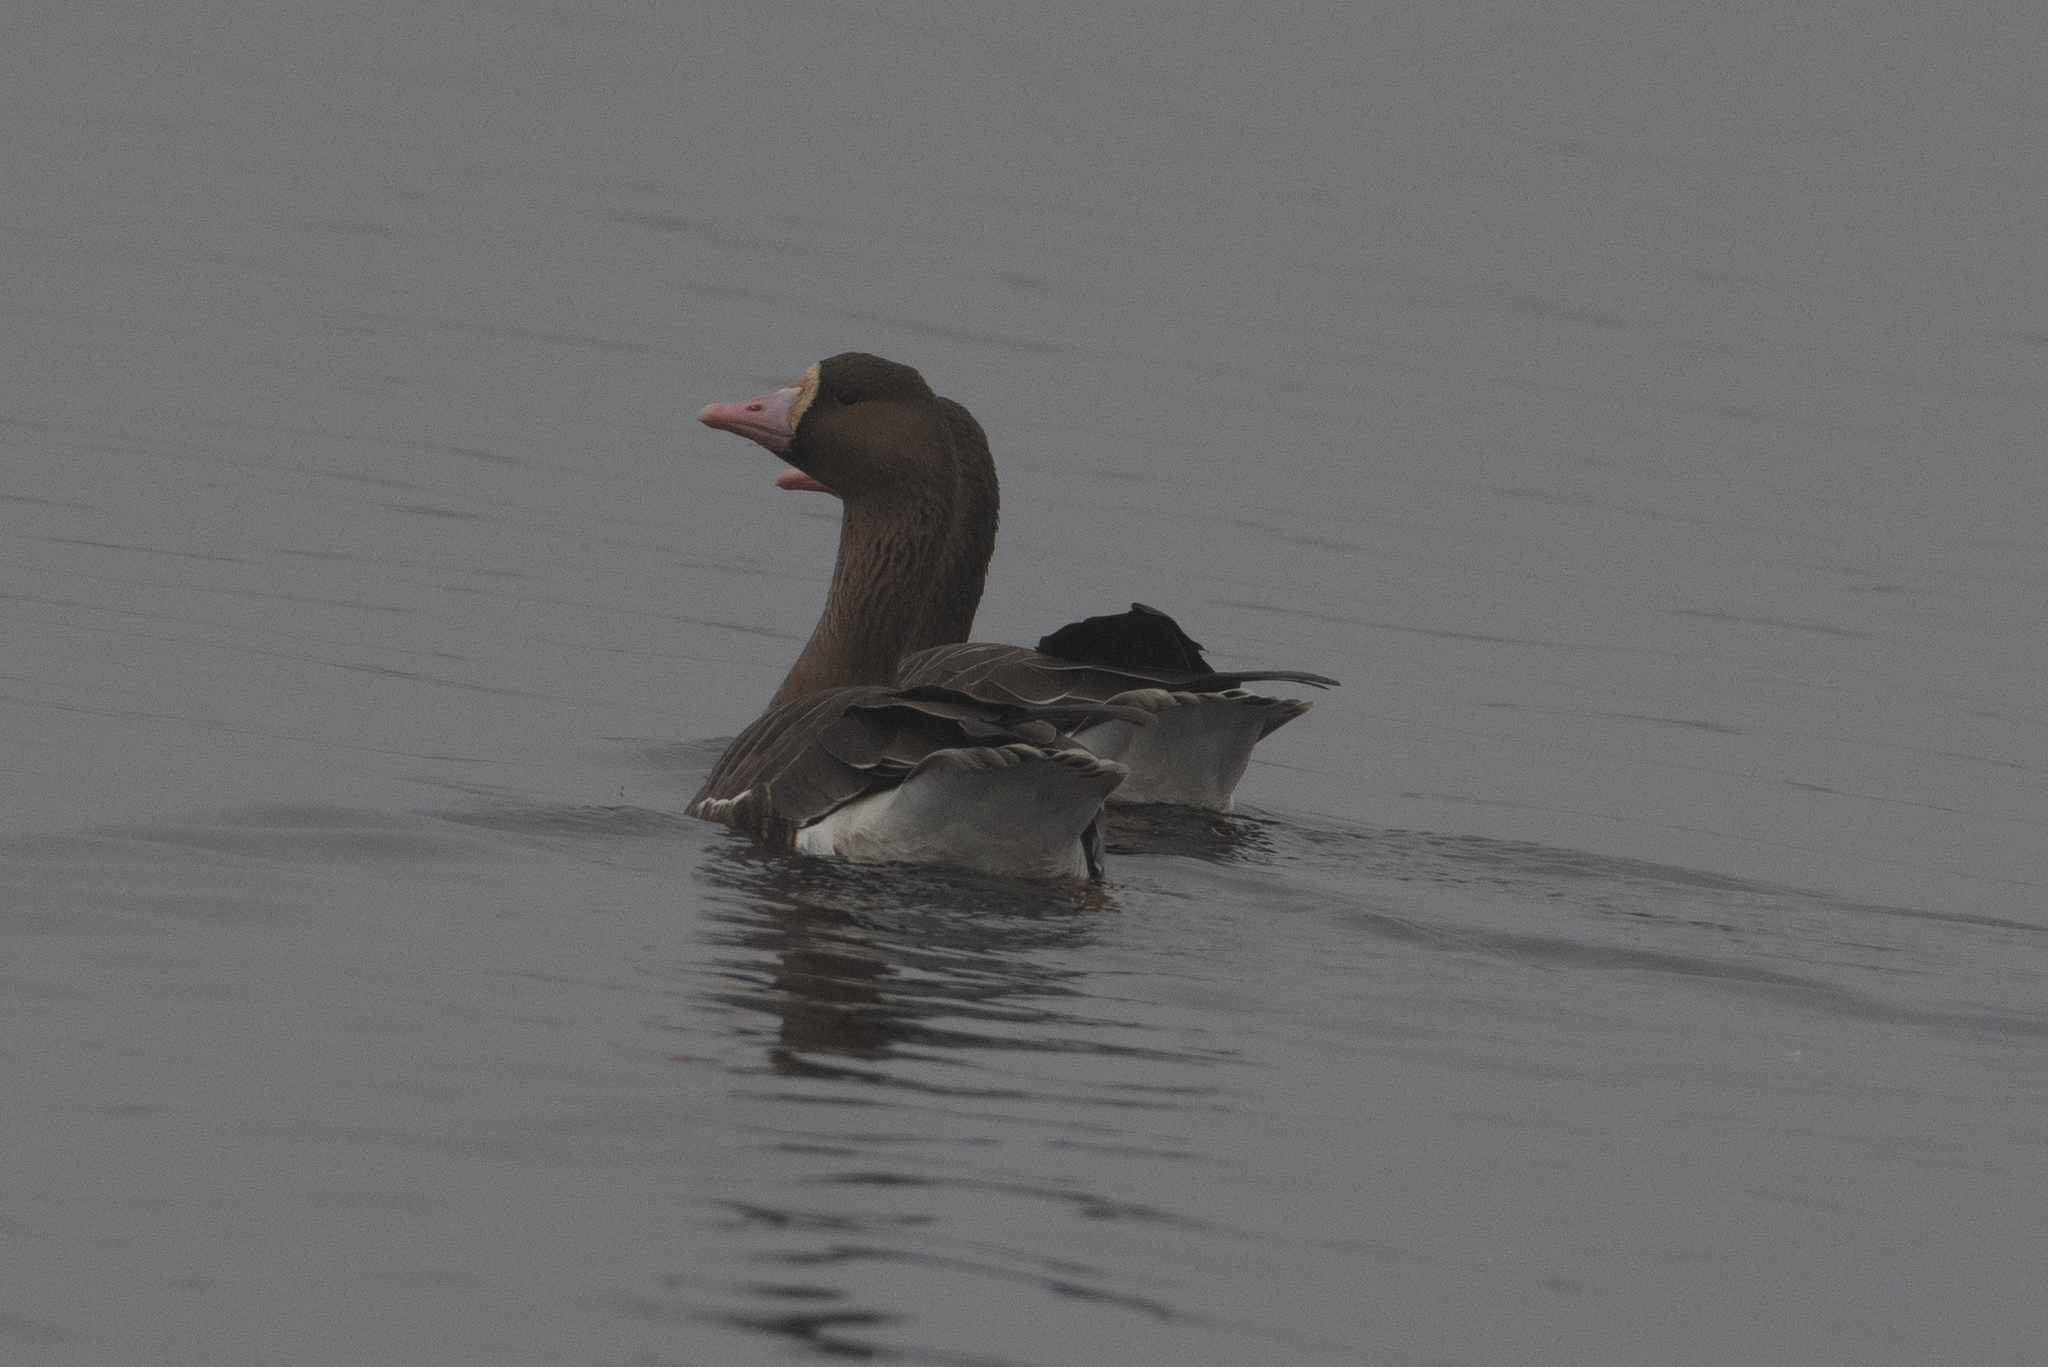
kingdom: Animalia
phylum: Chordata
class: Aves
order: Anseriformes
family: Anatidae
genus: Anser
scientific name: Anser albifrons
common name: Greater white-fronted goose
